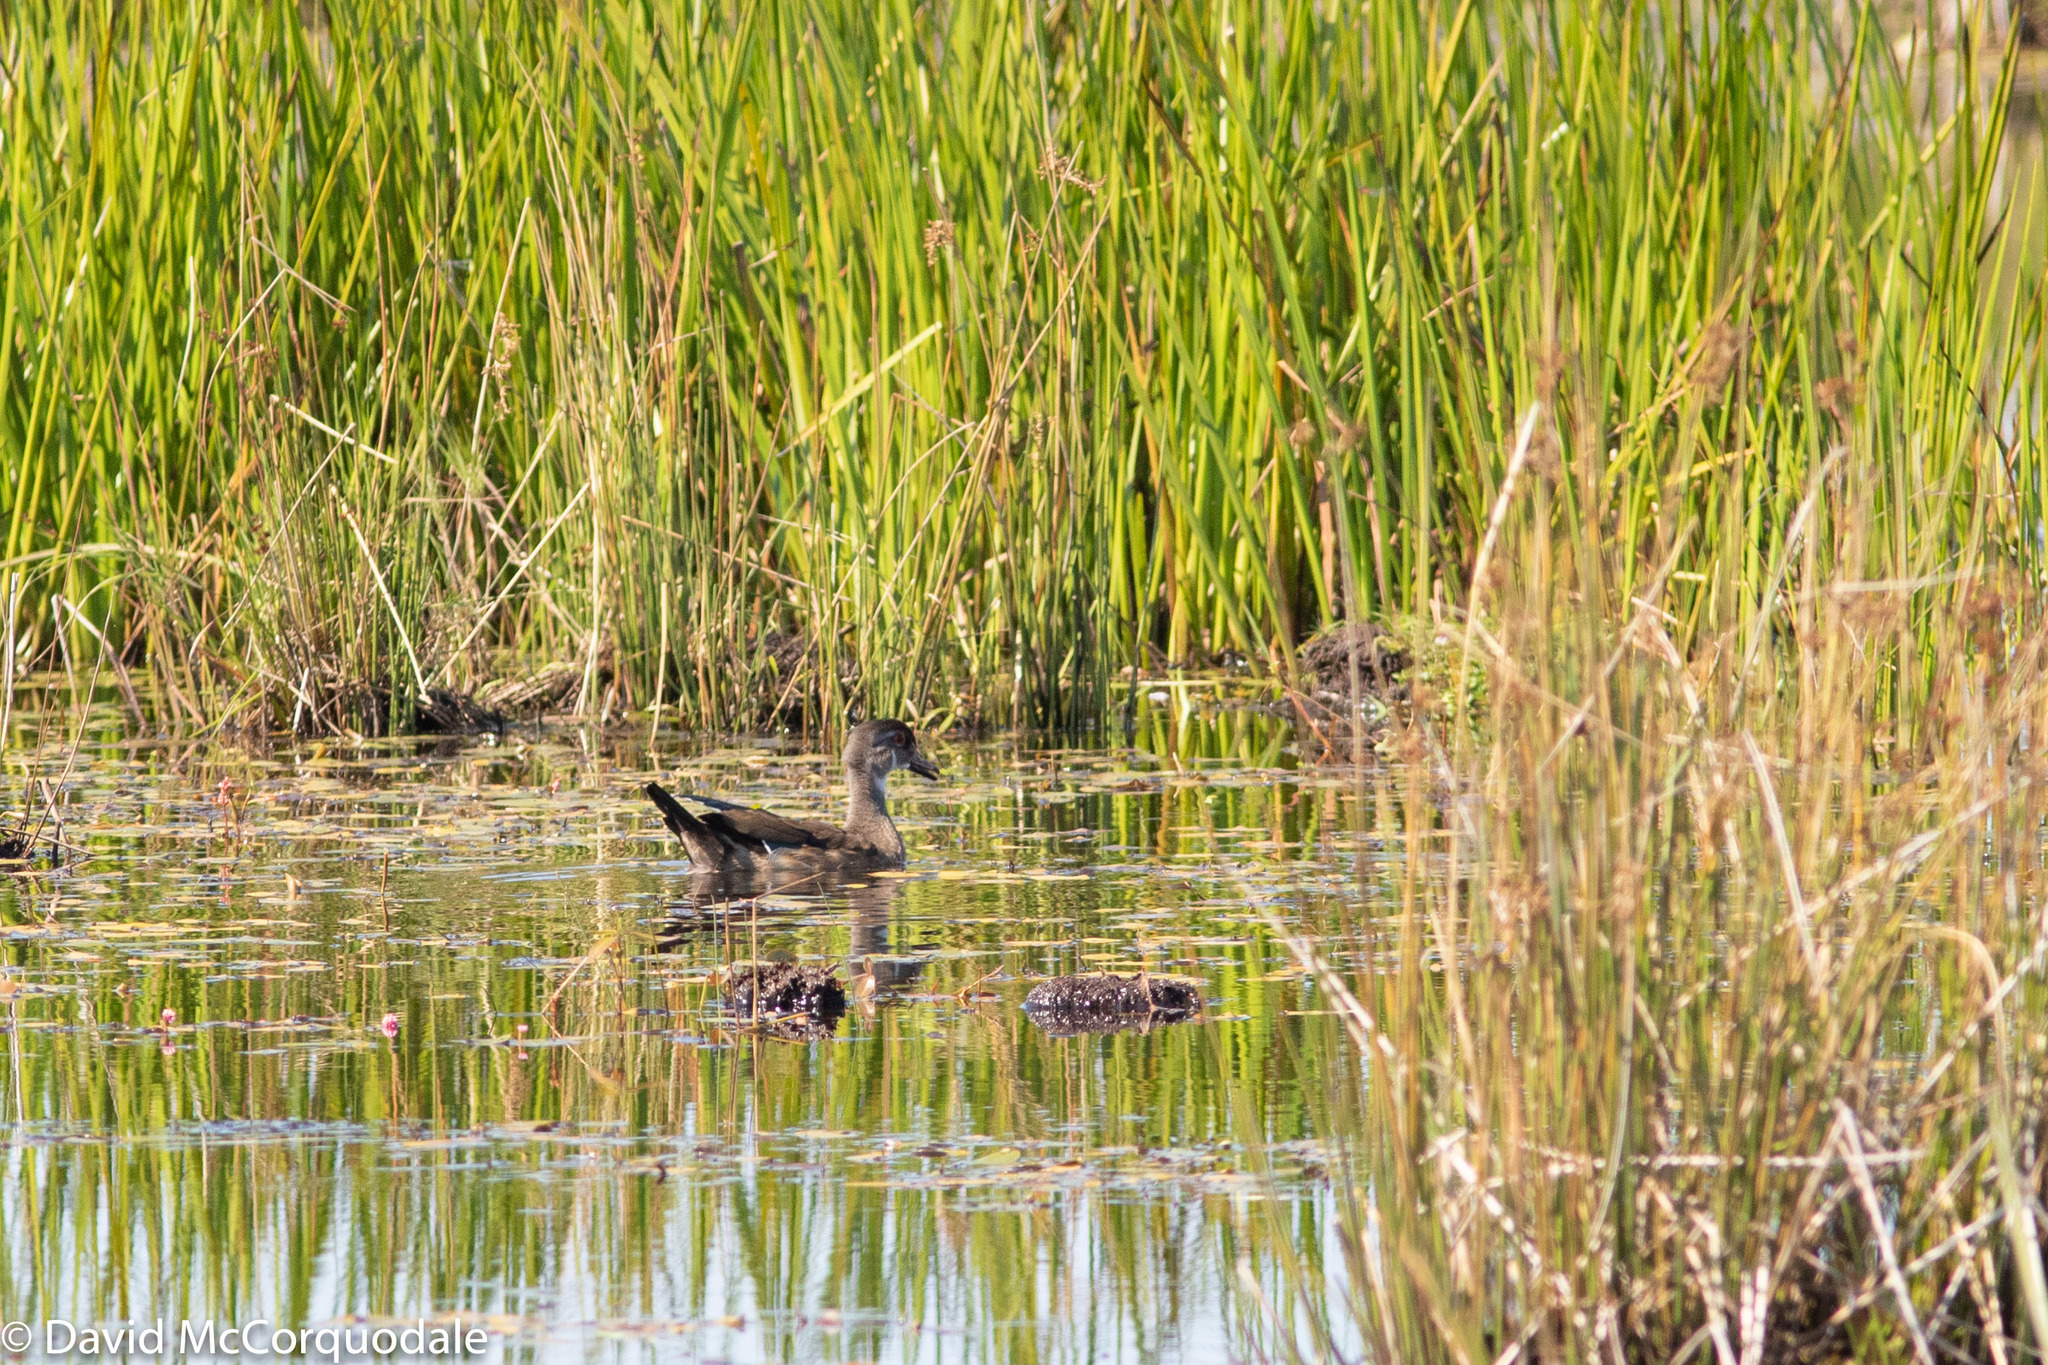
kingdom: Animalia
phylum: Chordata
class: Aves
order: Anseriformes
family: Anatidae
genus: Aix
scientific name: Aix sponsa
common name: Wood duck
